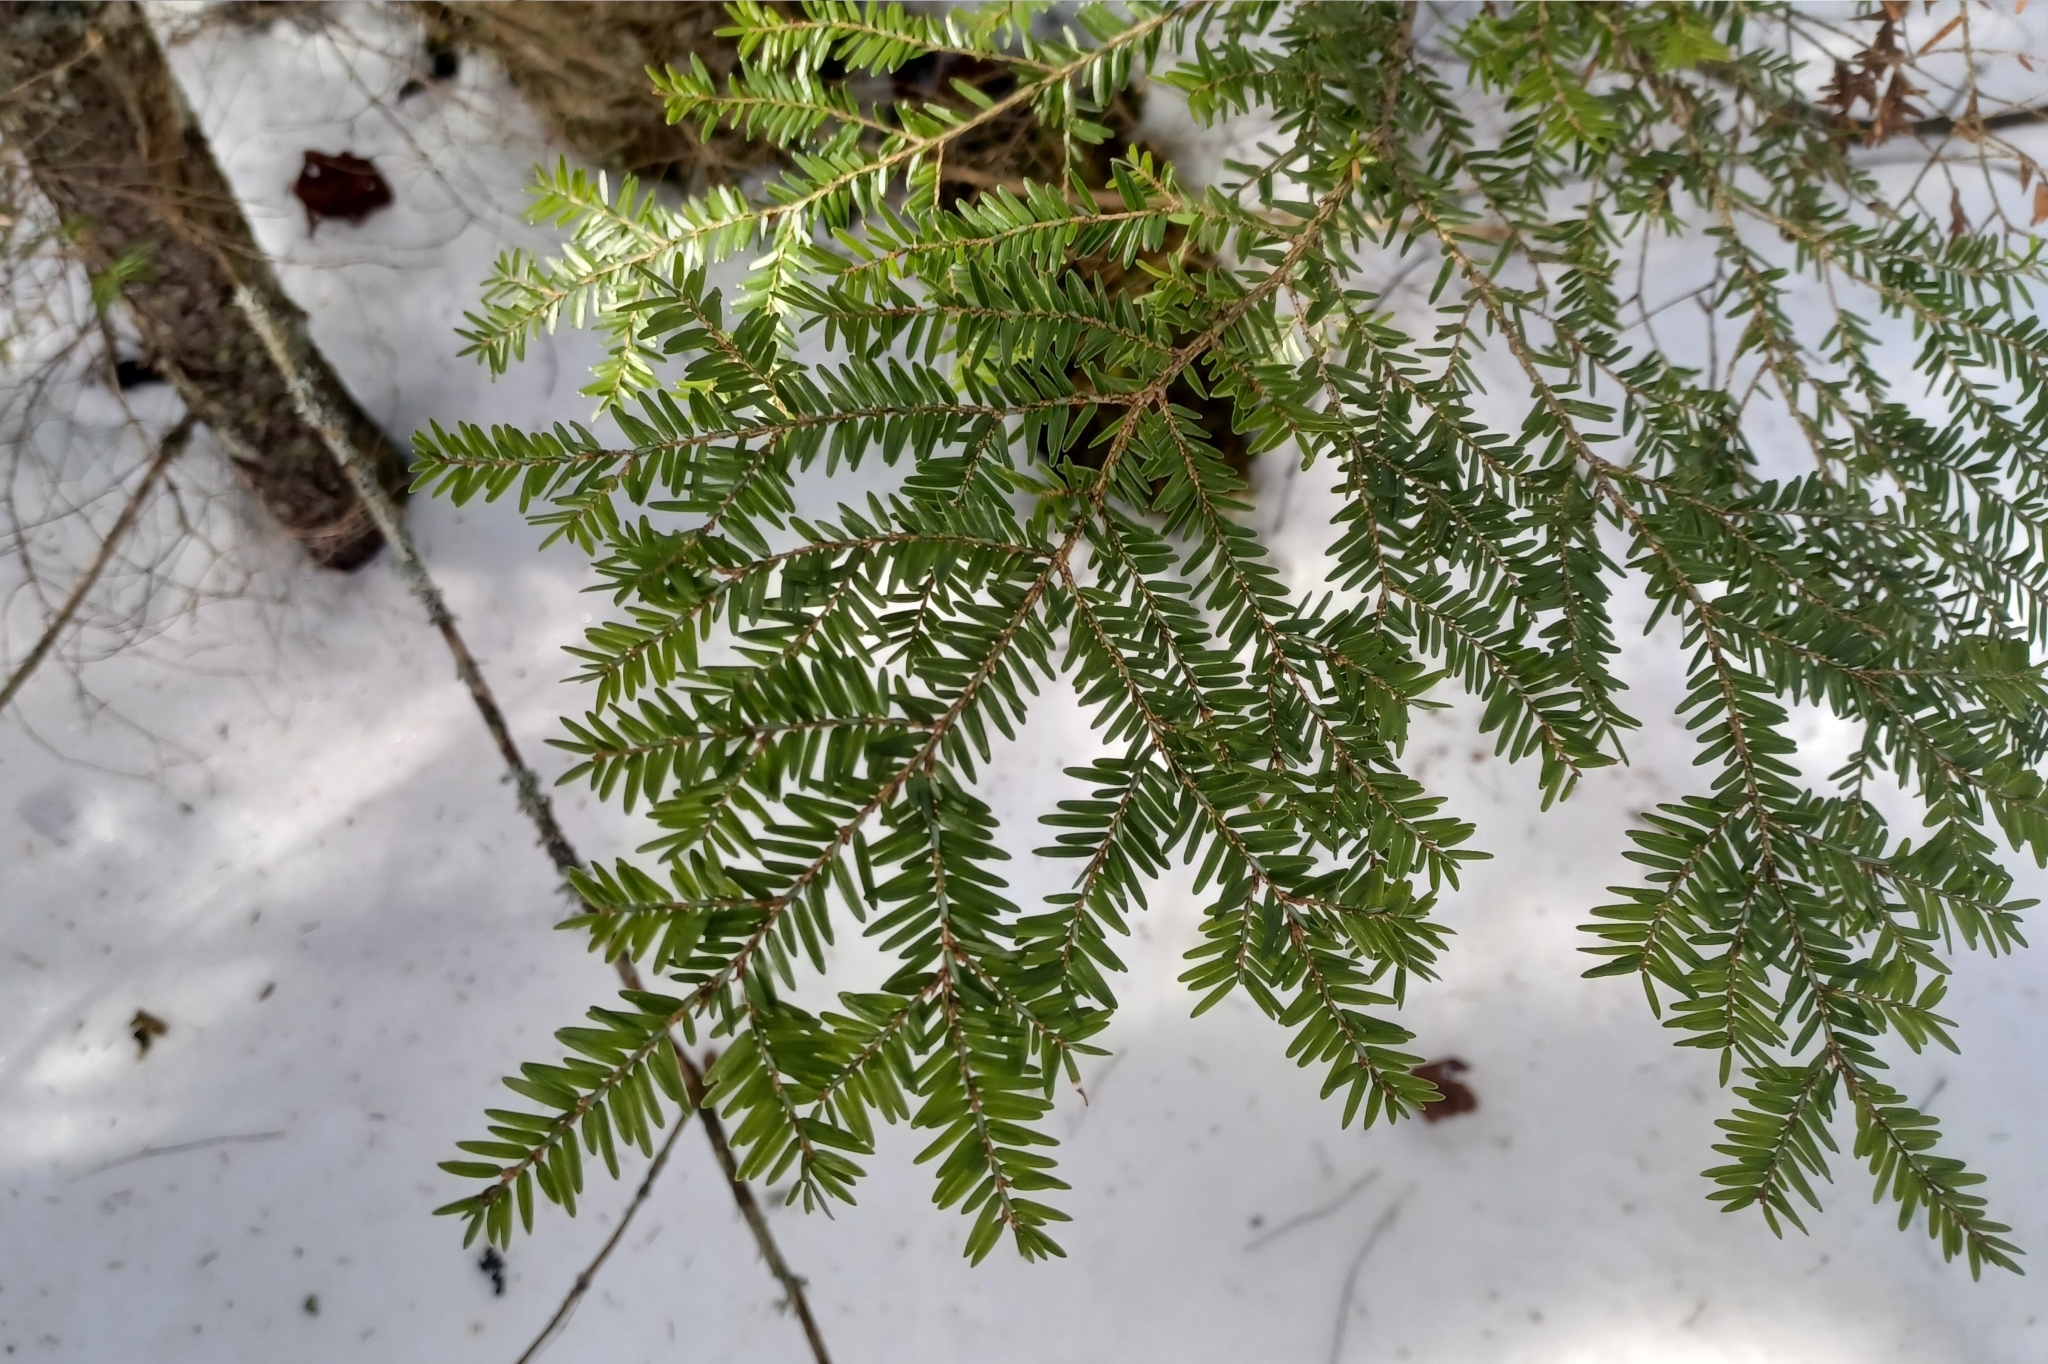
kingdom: Plantae
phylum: Tracheophyta
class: Pinopsida
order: Pinales
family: Pinaceae
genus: Tsuga
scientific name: Tsuga canadensis
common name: Eastern hemlock
